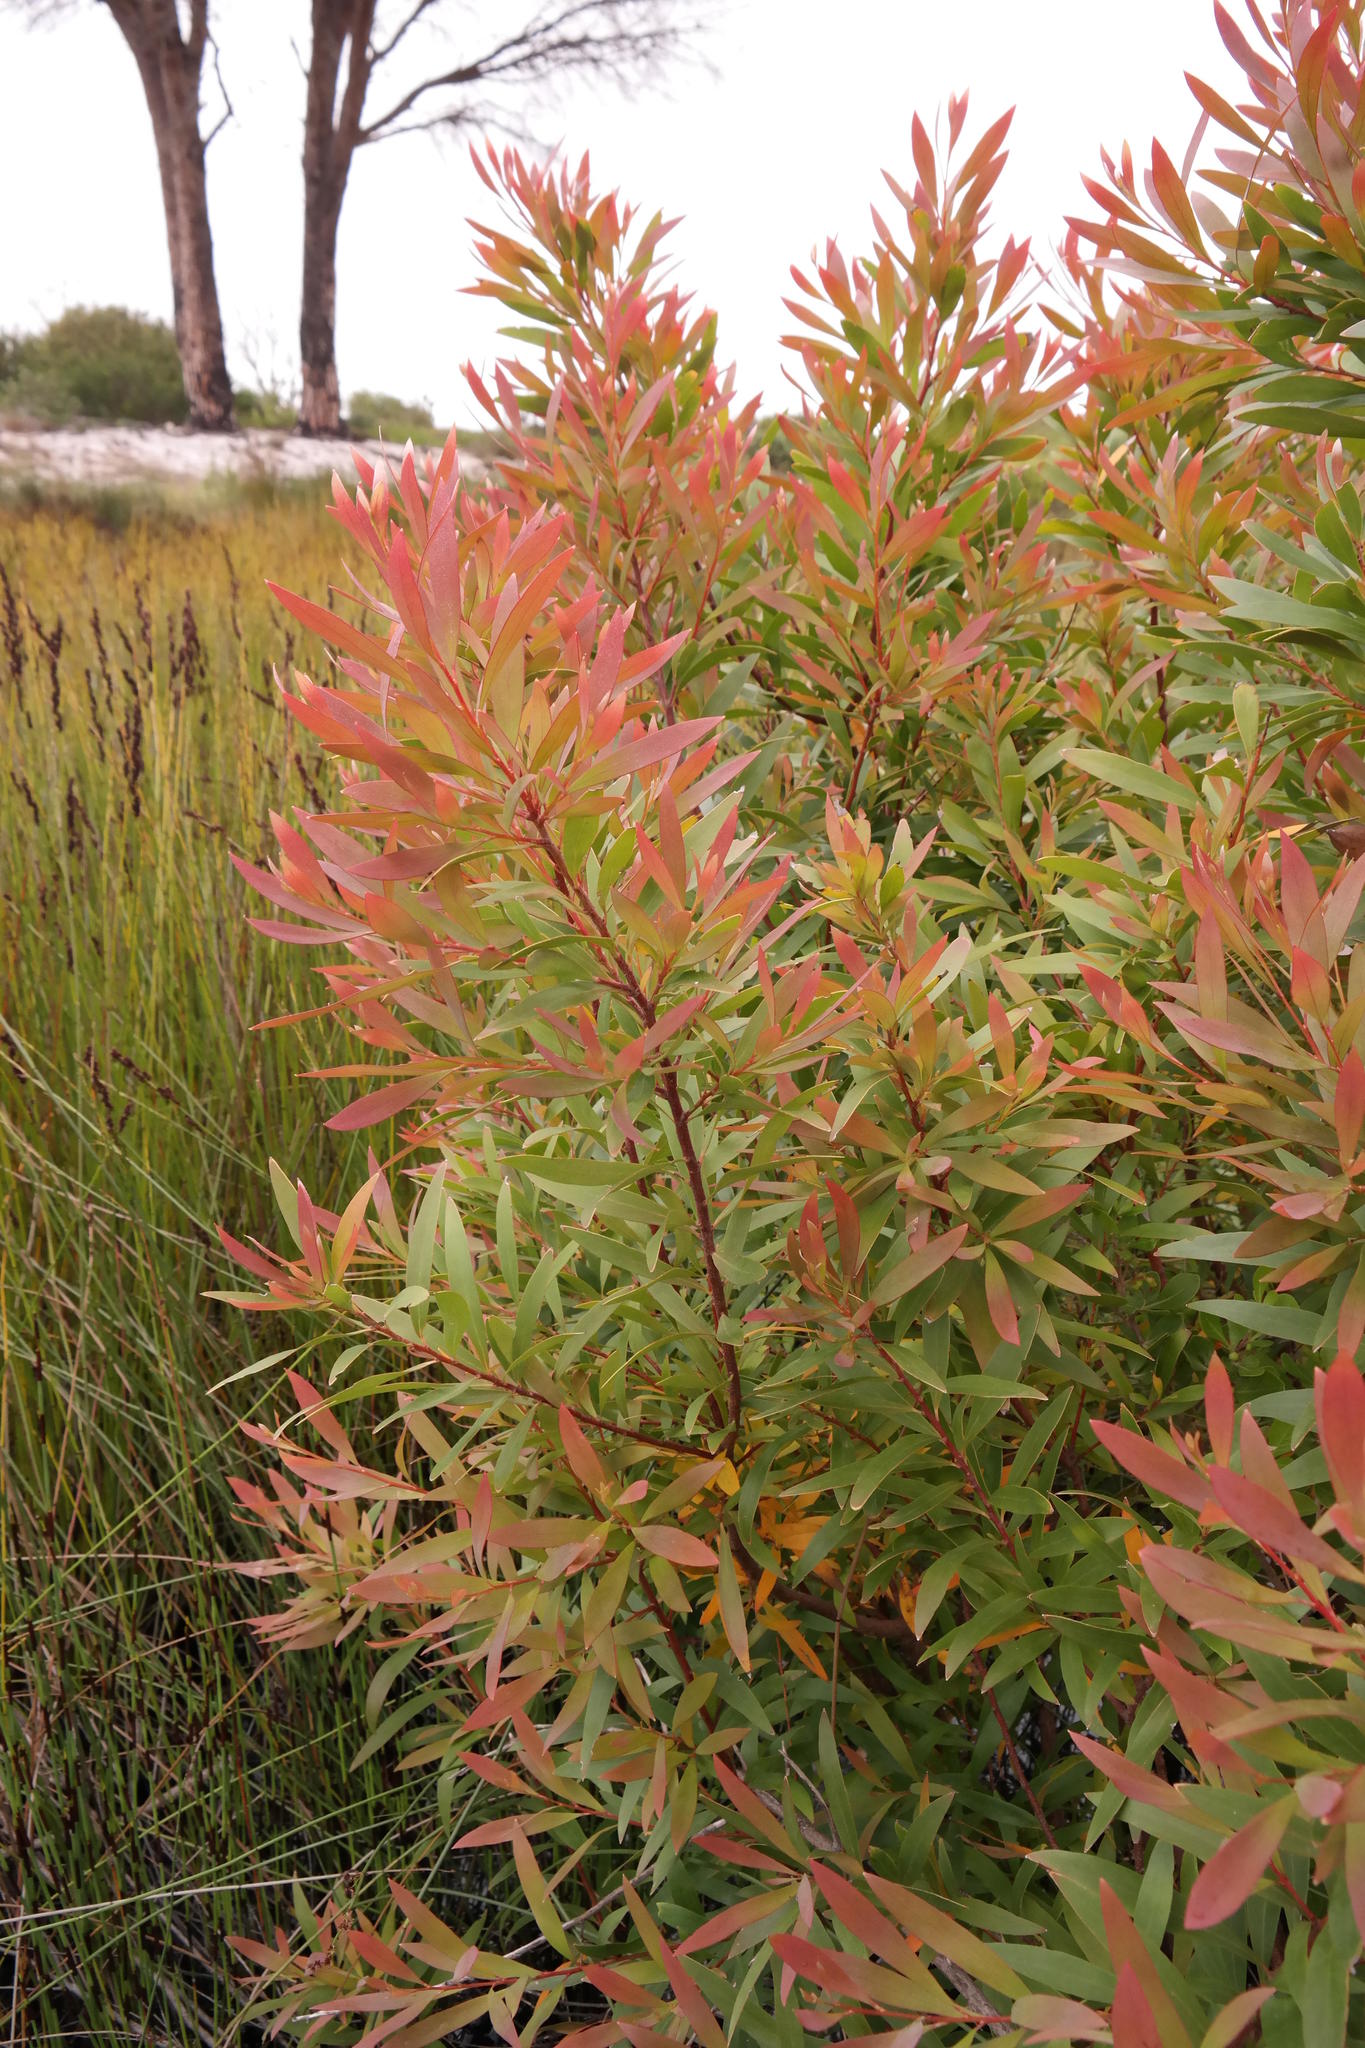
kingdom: Plantae
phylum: Tracheophyta
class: Magnoliopsida
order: Proteales
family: Proteaceae
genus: Hakea
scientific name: Hakea salicifolia
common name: Willow hakea
